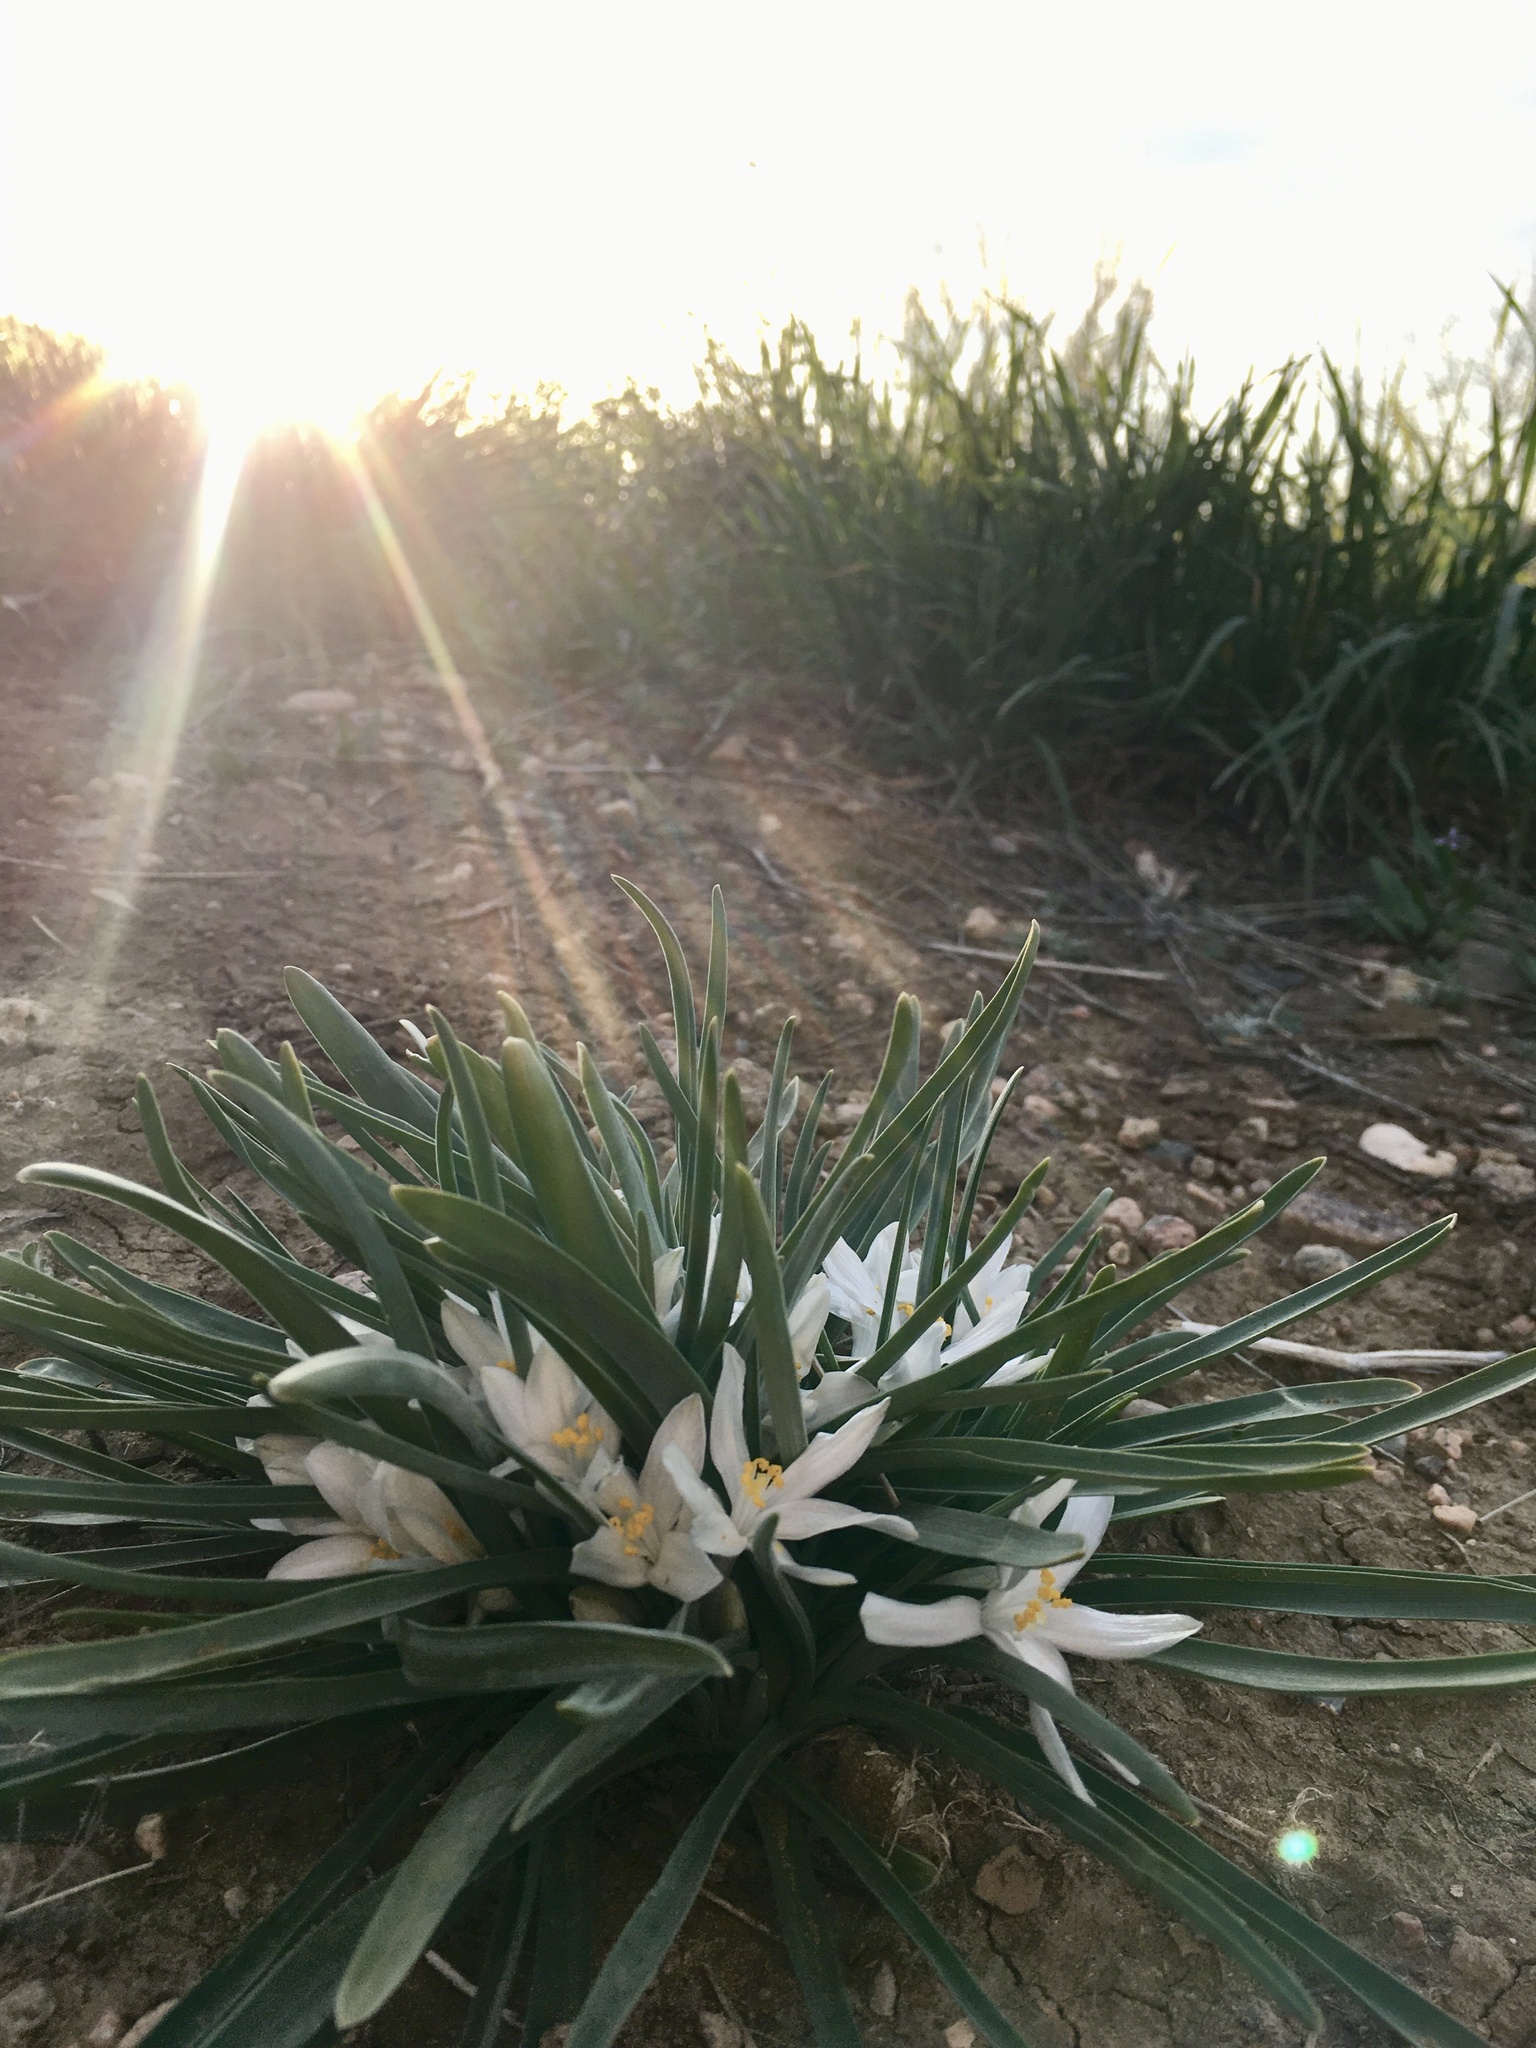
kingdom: Plantae
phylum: Tracheophyta
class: Liliopsida
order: Asparagales
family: Asparagaceae
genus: Leucocrinum
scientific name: Leucocrinum montanum
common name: Mountain-lily
